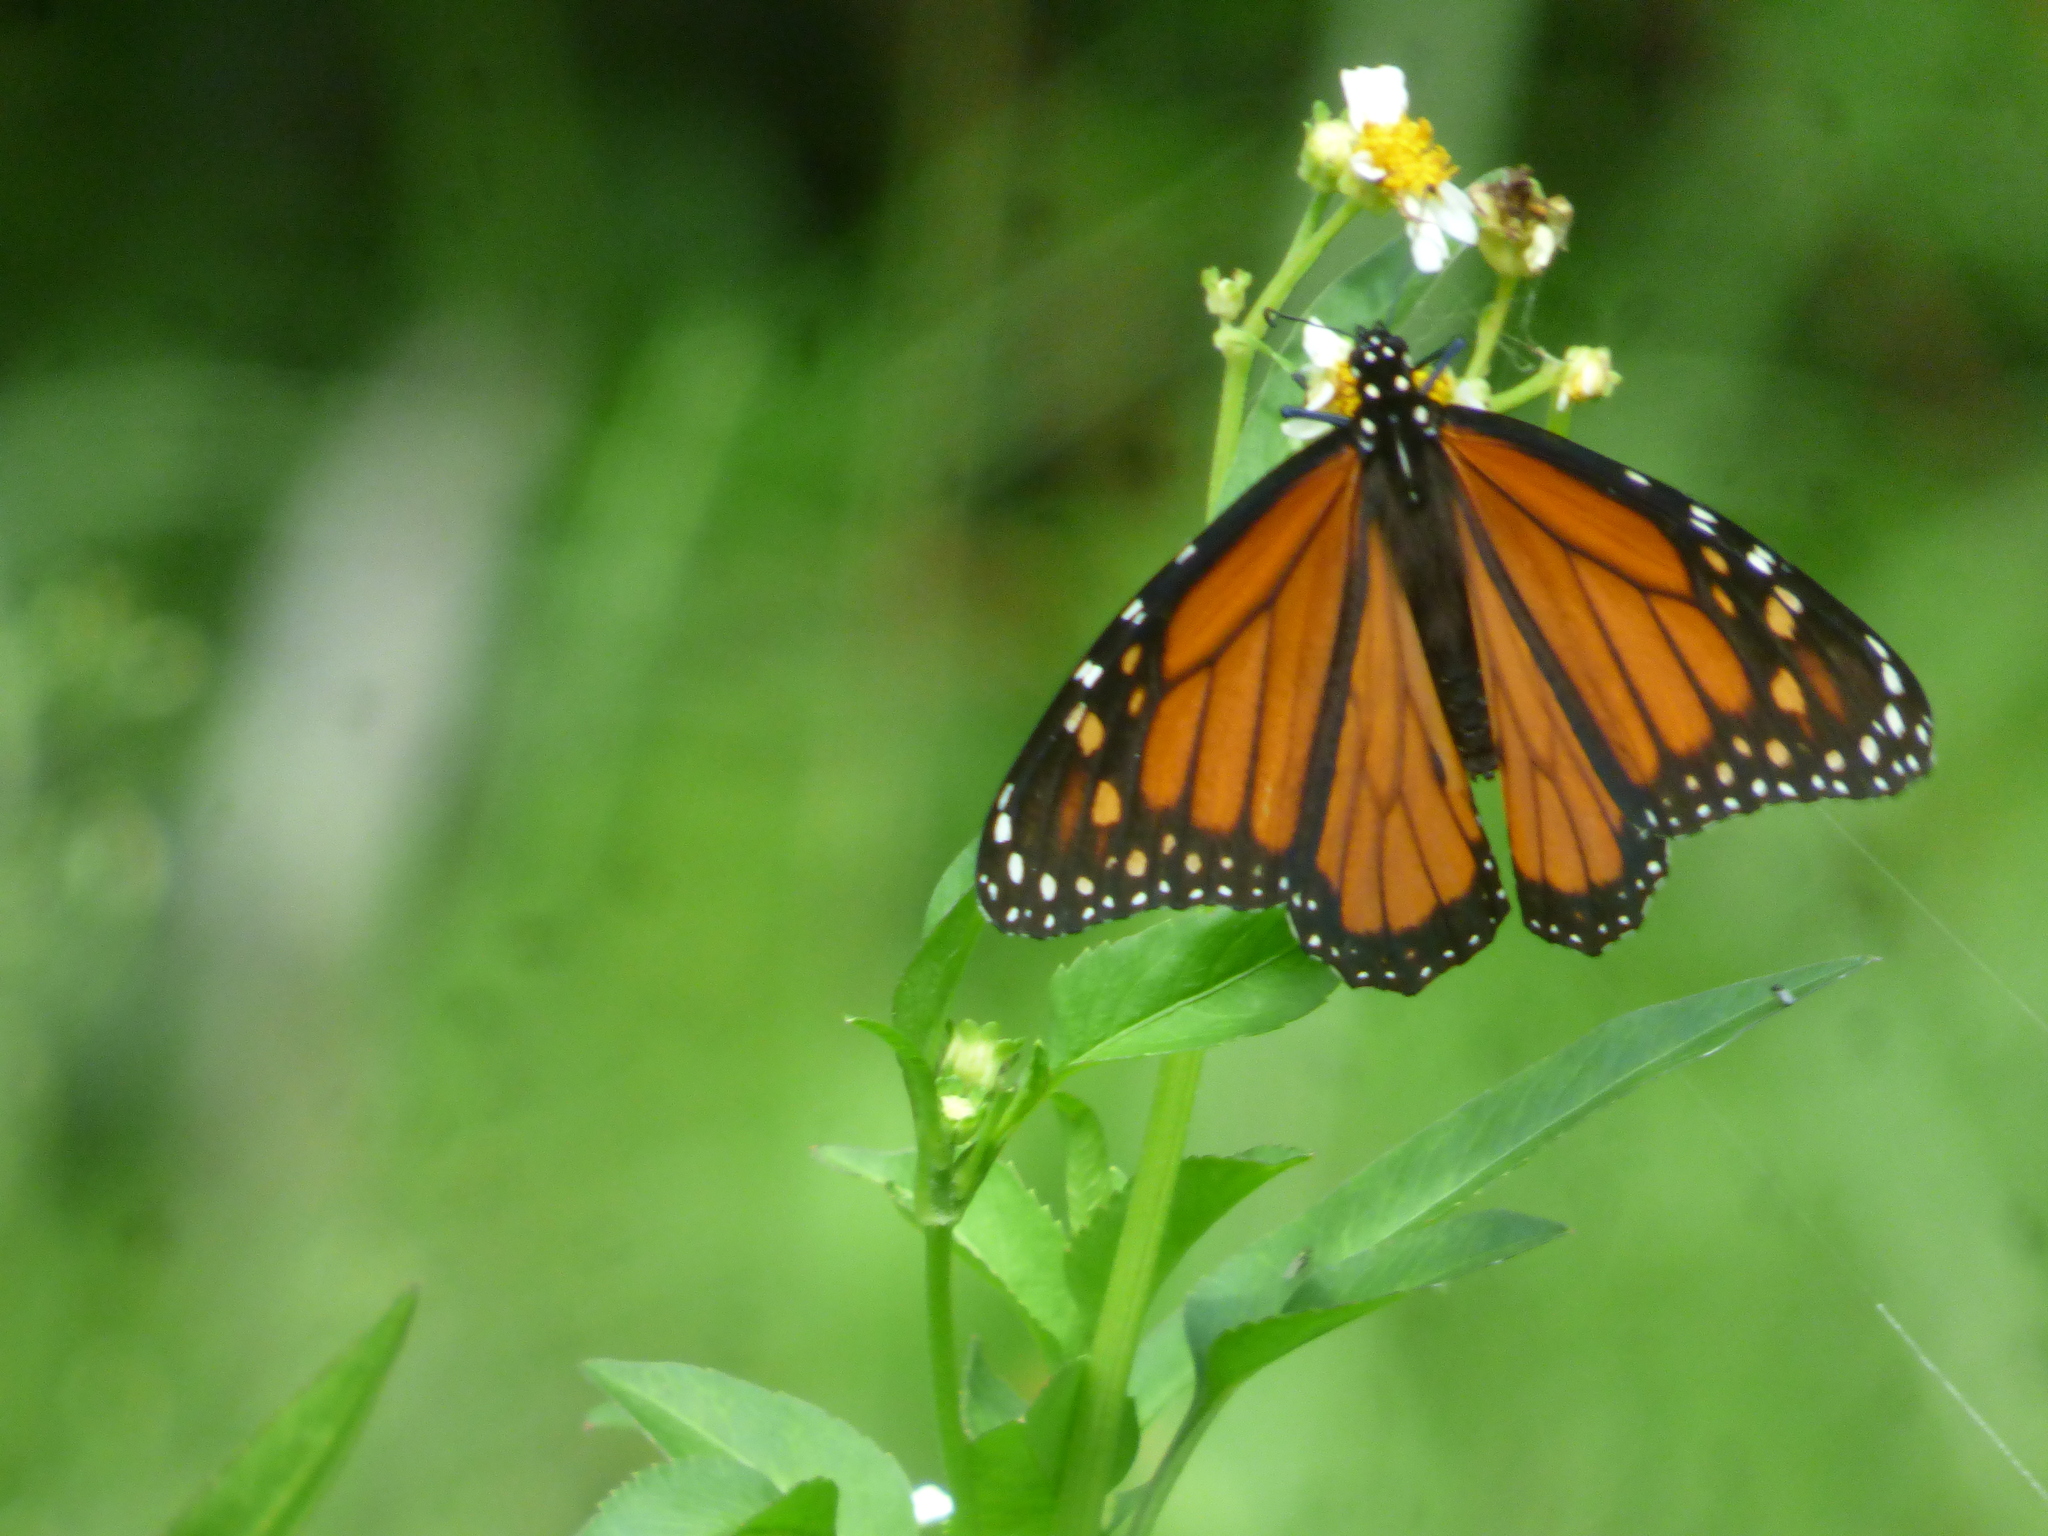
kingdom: Animalia
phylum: Arthropoda
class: Insecta
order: Lepidoptera
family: Nymphalidae
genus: Danaus
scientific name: Danaus plexippus
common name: Monarch
